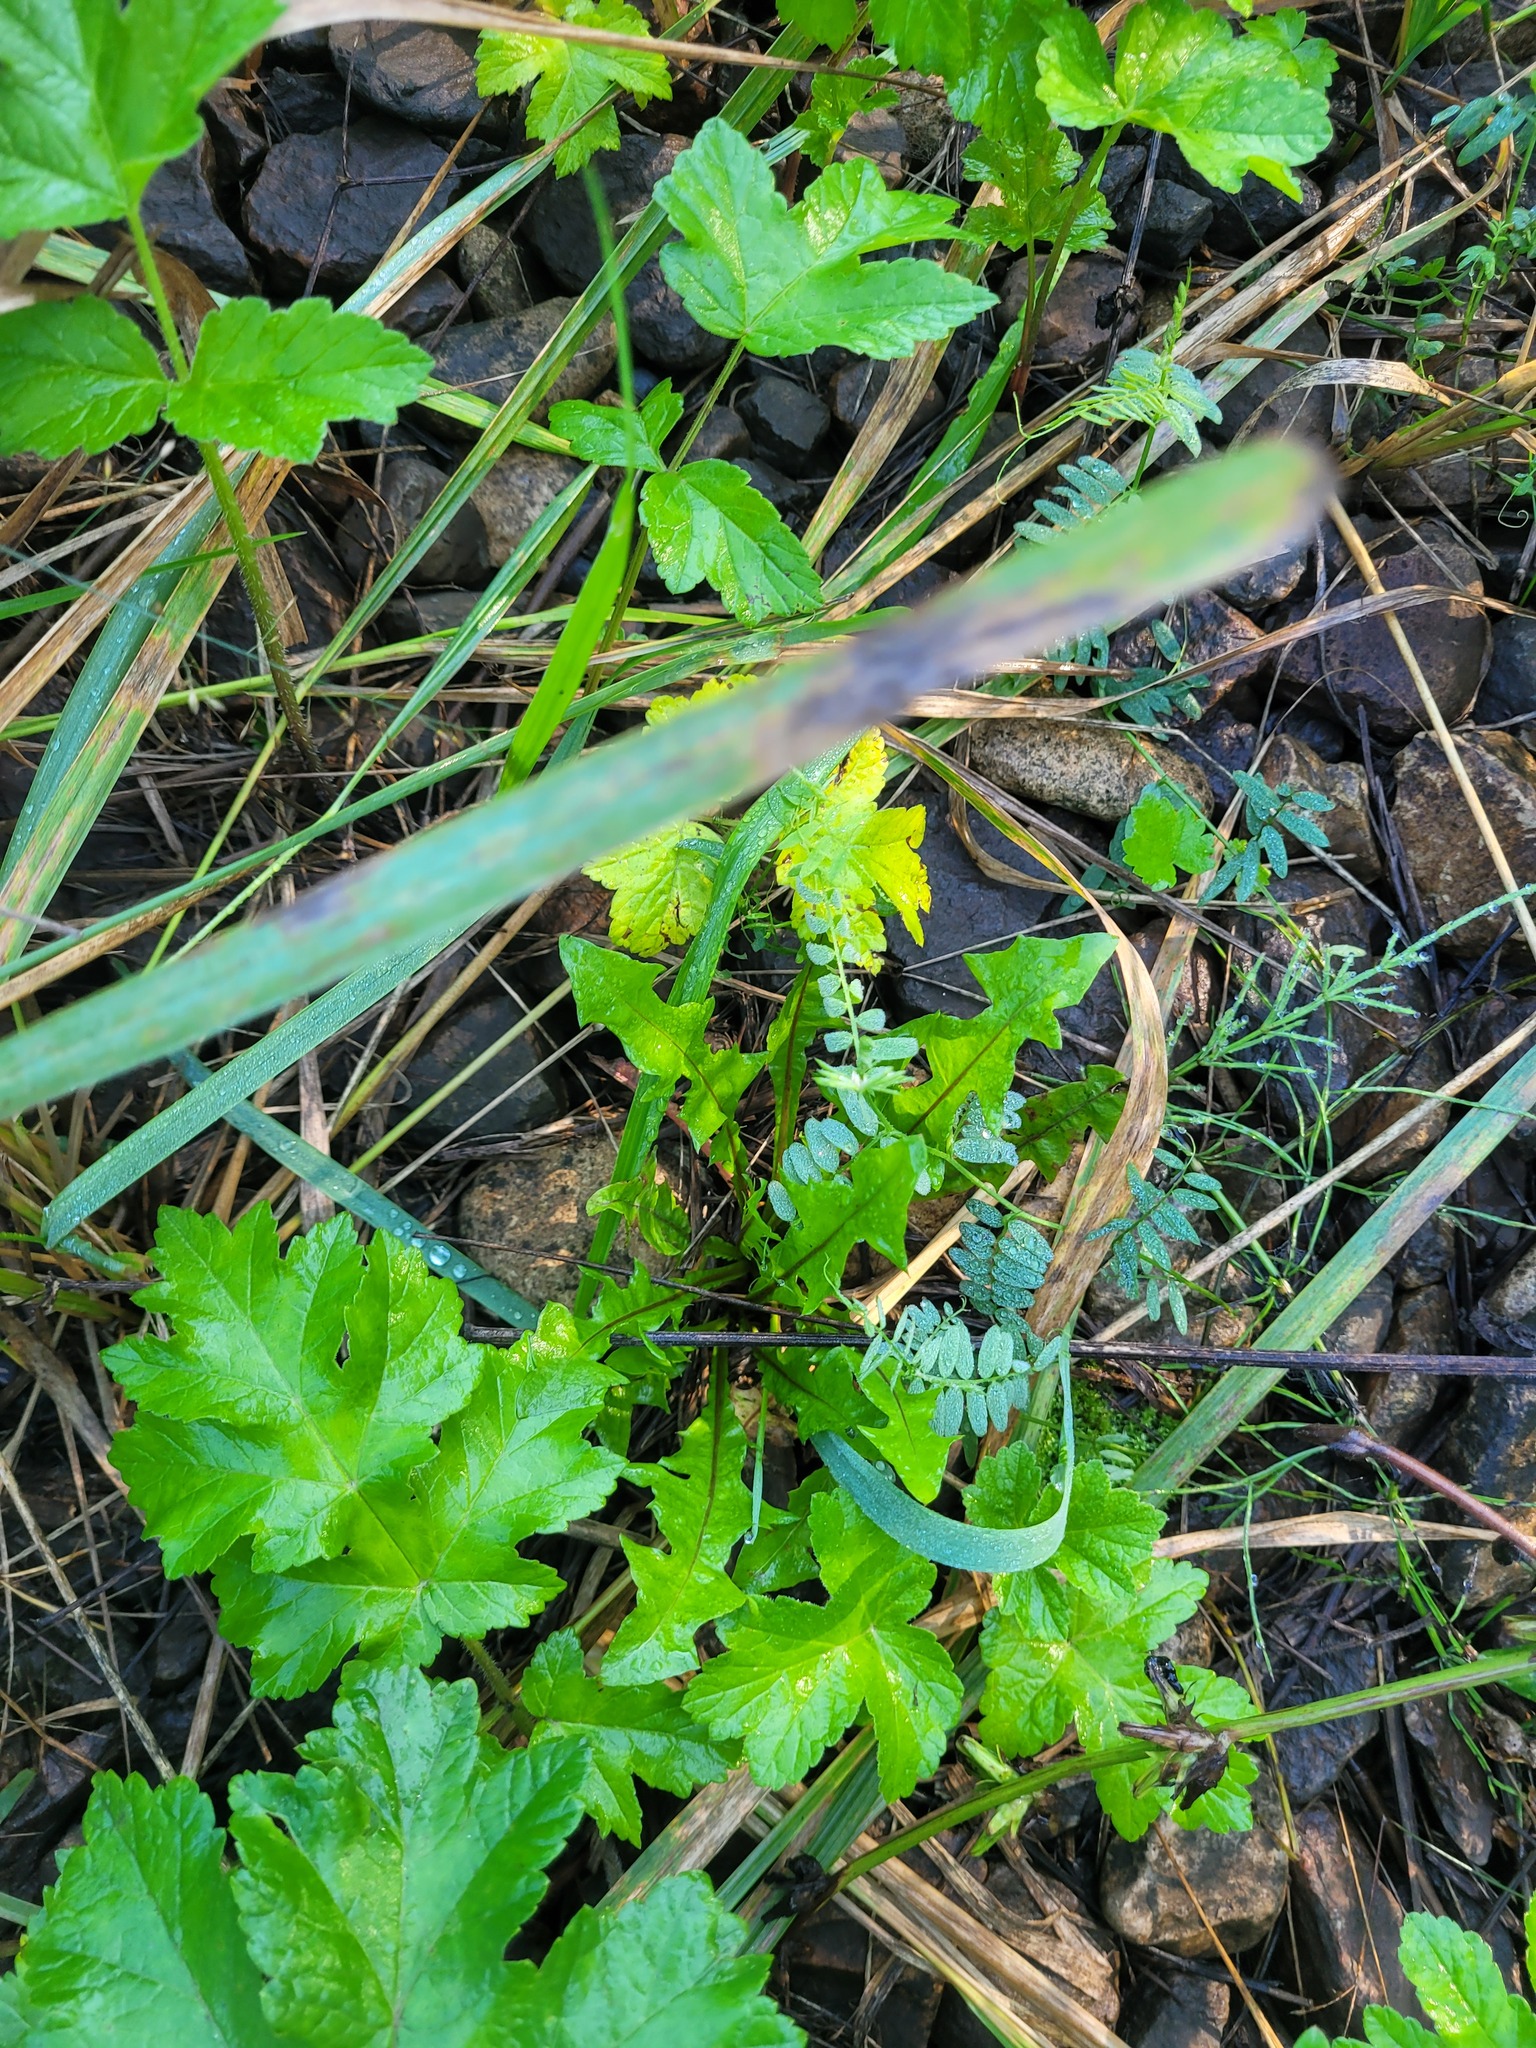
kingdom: Plantae
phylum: Tracheophyta
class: Magnoliopsida
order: Asterales
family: Asteraceae
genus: Taraxacum
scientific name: Taraxacum officinale
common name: Common dandelion
